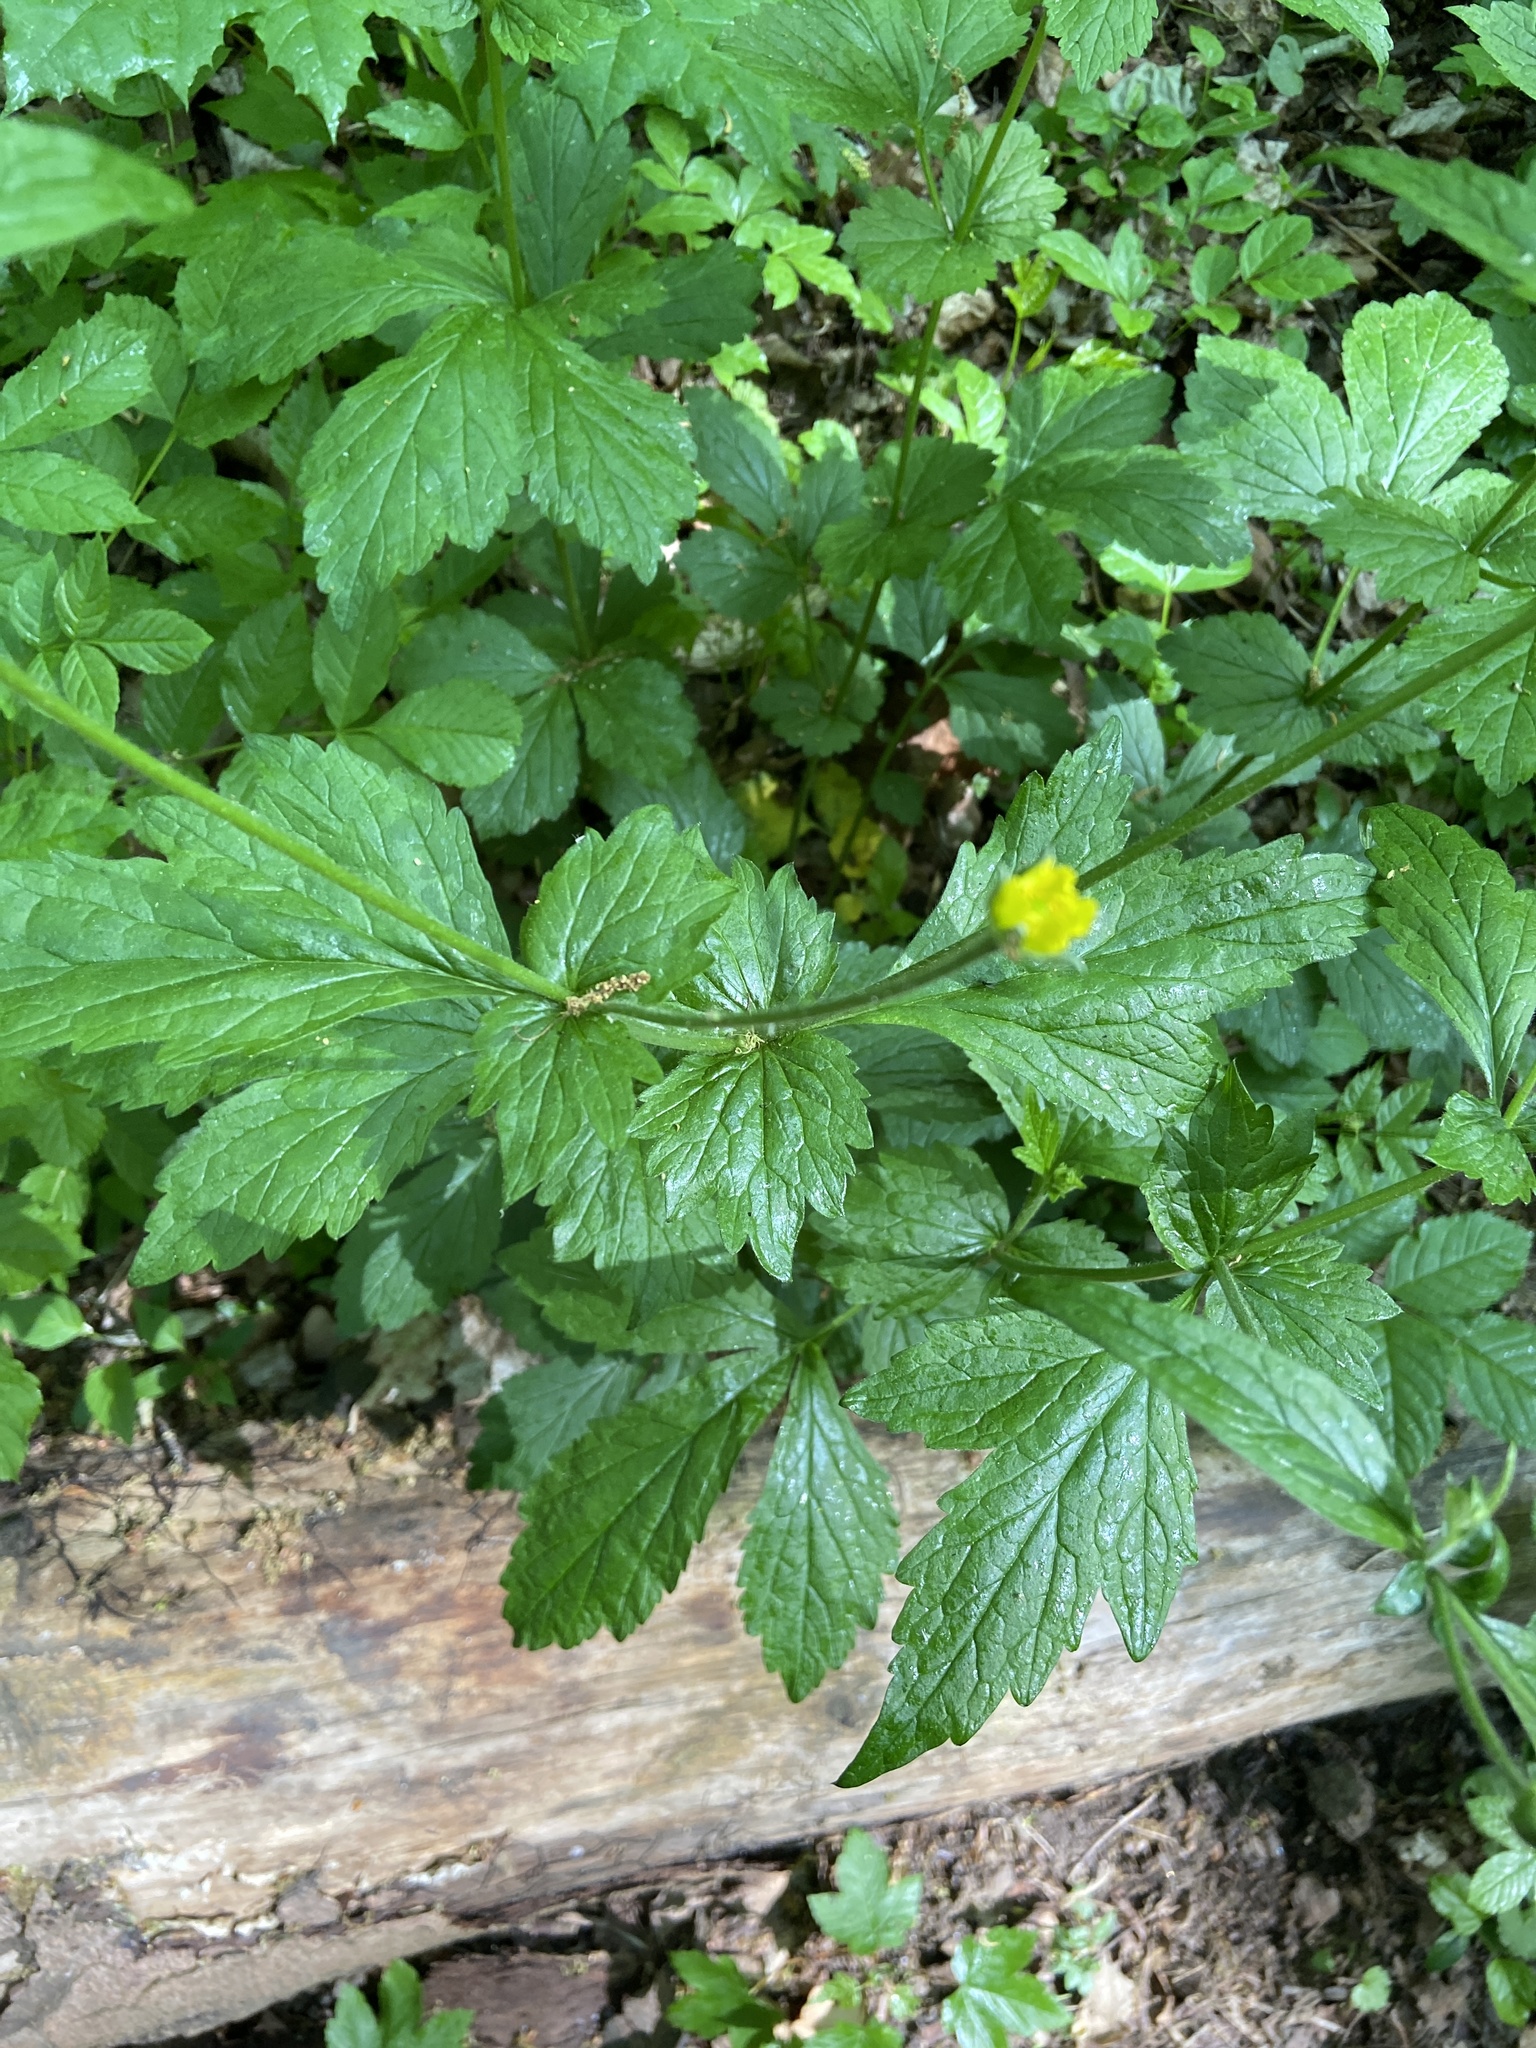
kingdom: Plantae
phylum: Tracheophyta
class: Magnoliopsida
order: Rosales
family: Rosaceae
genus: Geum
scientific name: Geum urbanum
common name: Wood avens
